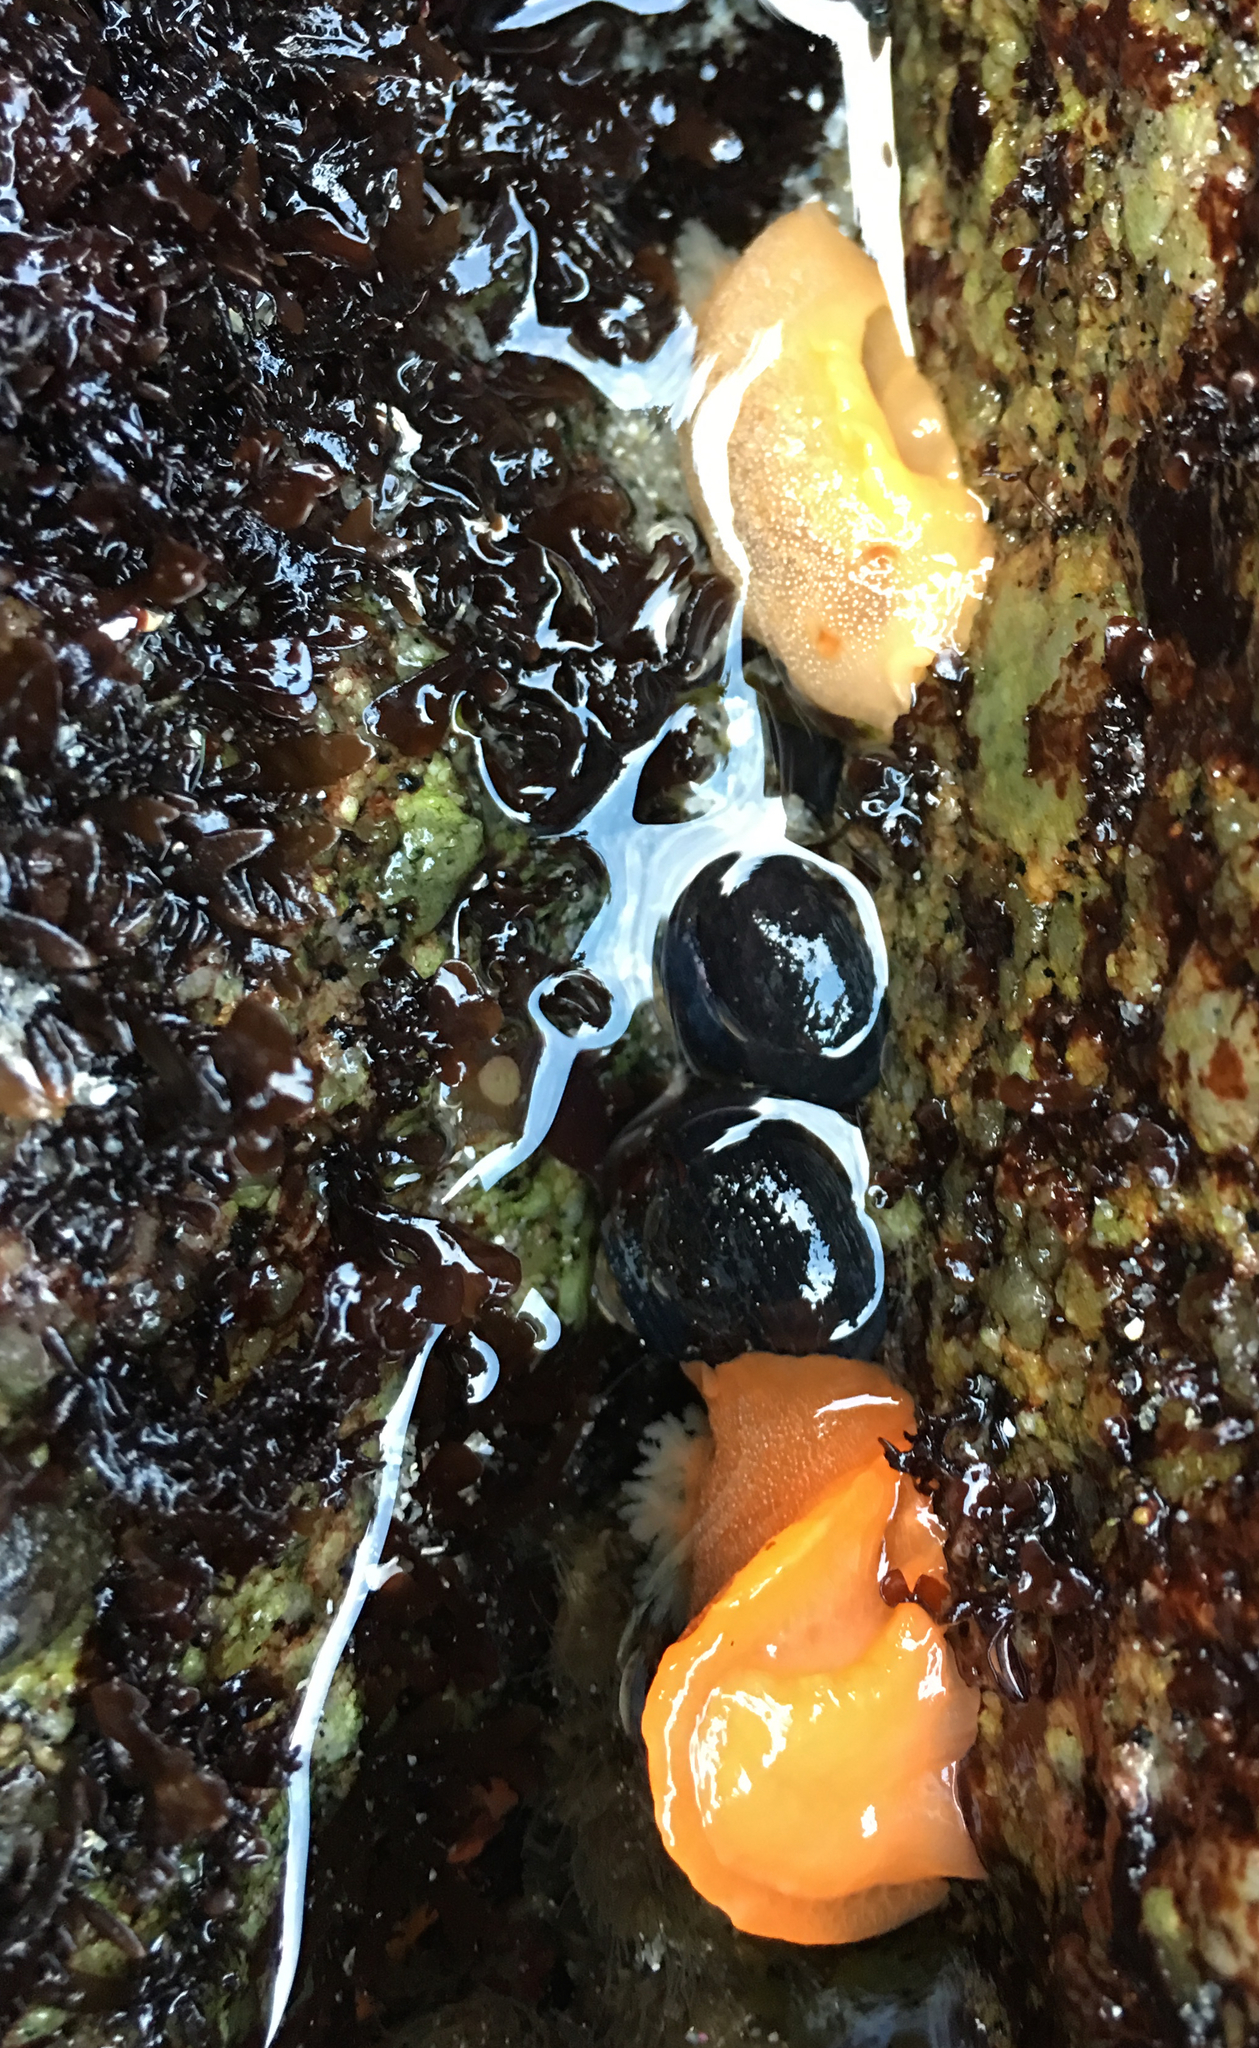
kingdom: Animalia
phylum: Mollusca
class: Gastropoda
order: Nudibranchia
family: Dendrodorididae
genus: Doriopsilla
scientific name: Doriopsilla albopunctata
